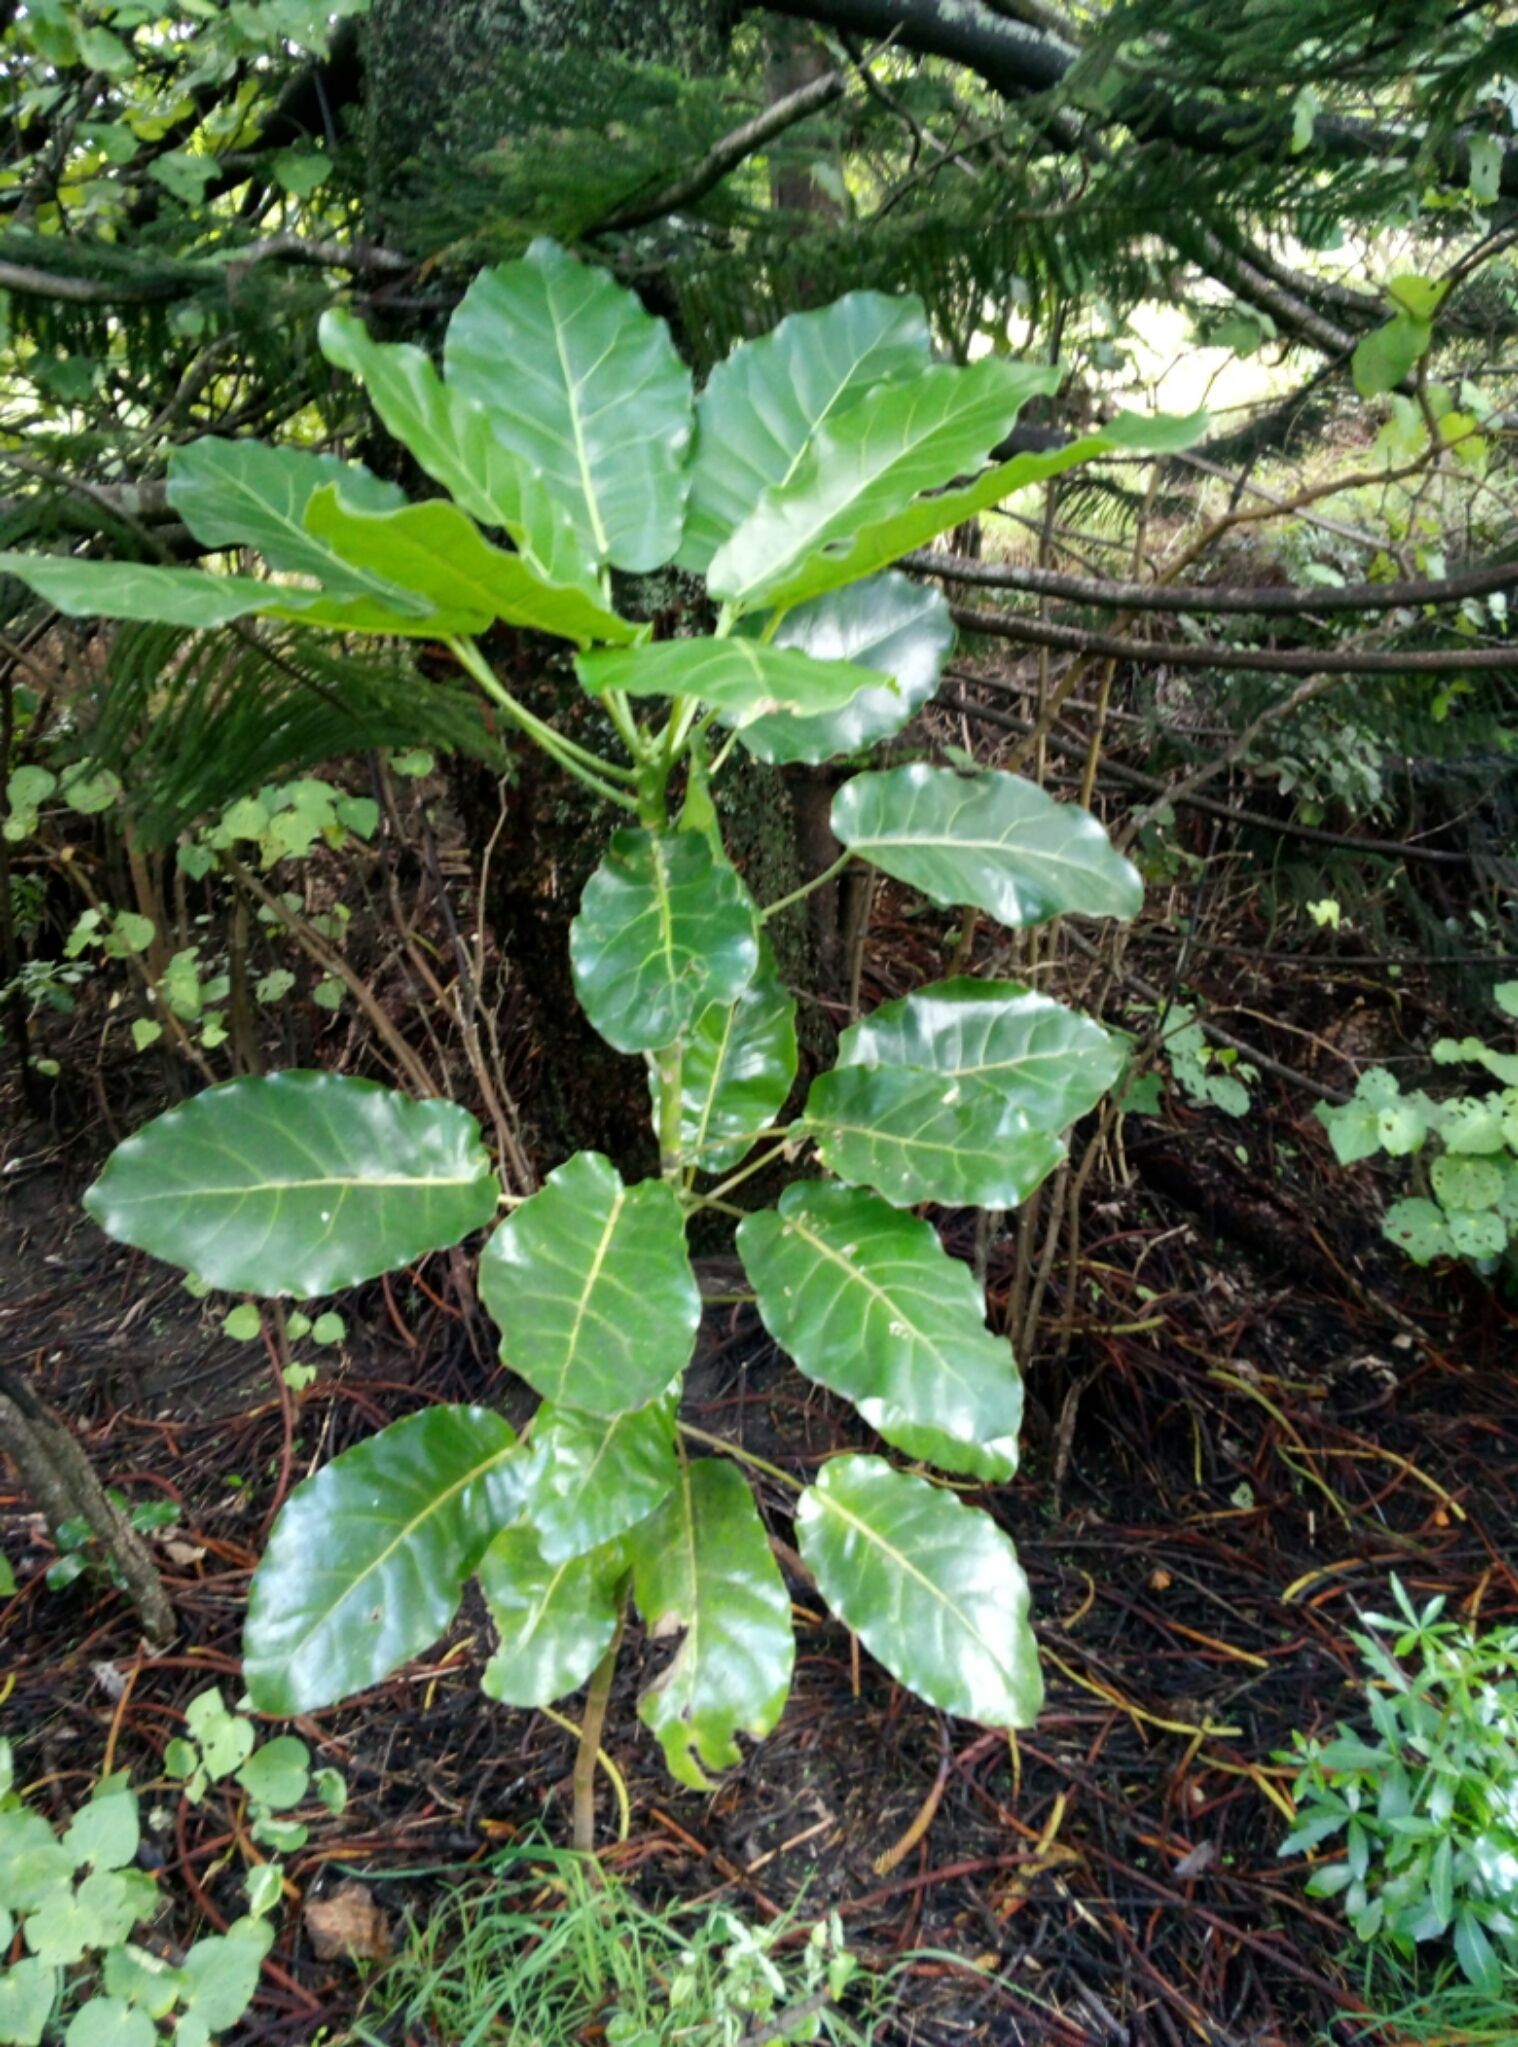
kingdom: Plantae
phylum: Tracheophyta
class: Magnoliopsida
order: Apiales
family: Araliaceae
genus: Meryta
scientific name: Meryta sinclairii
